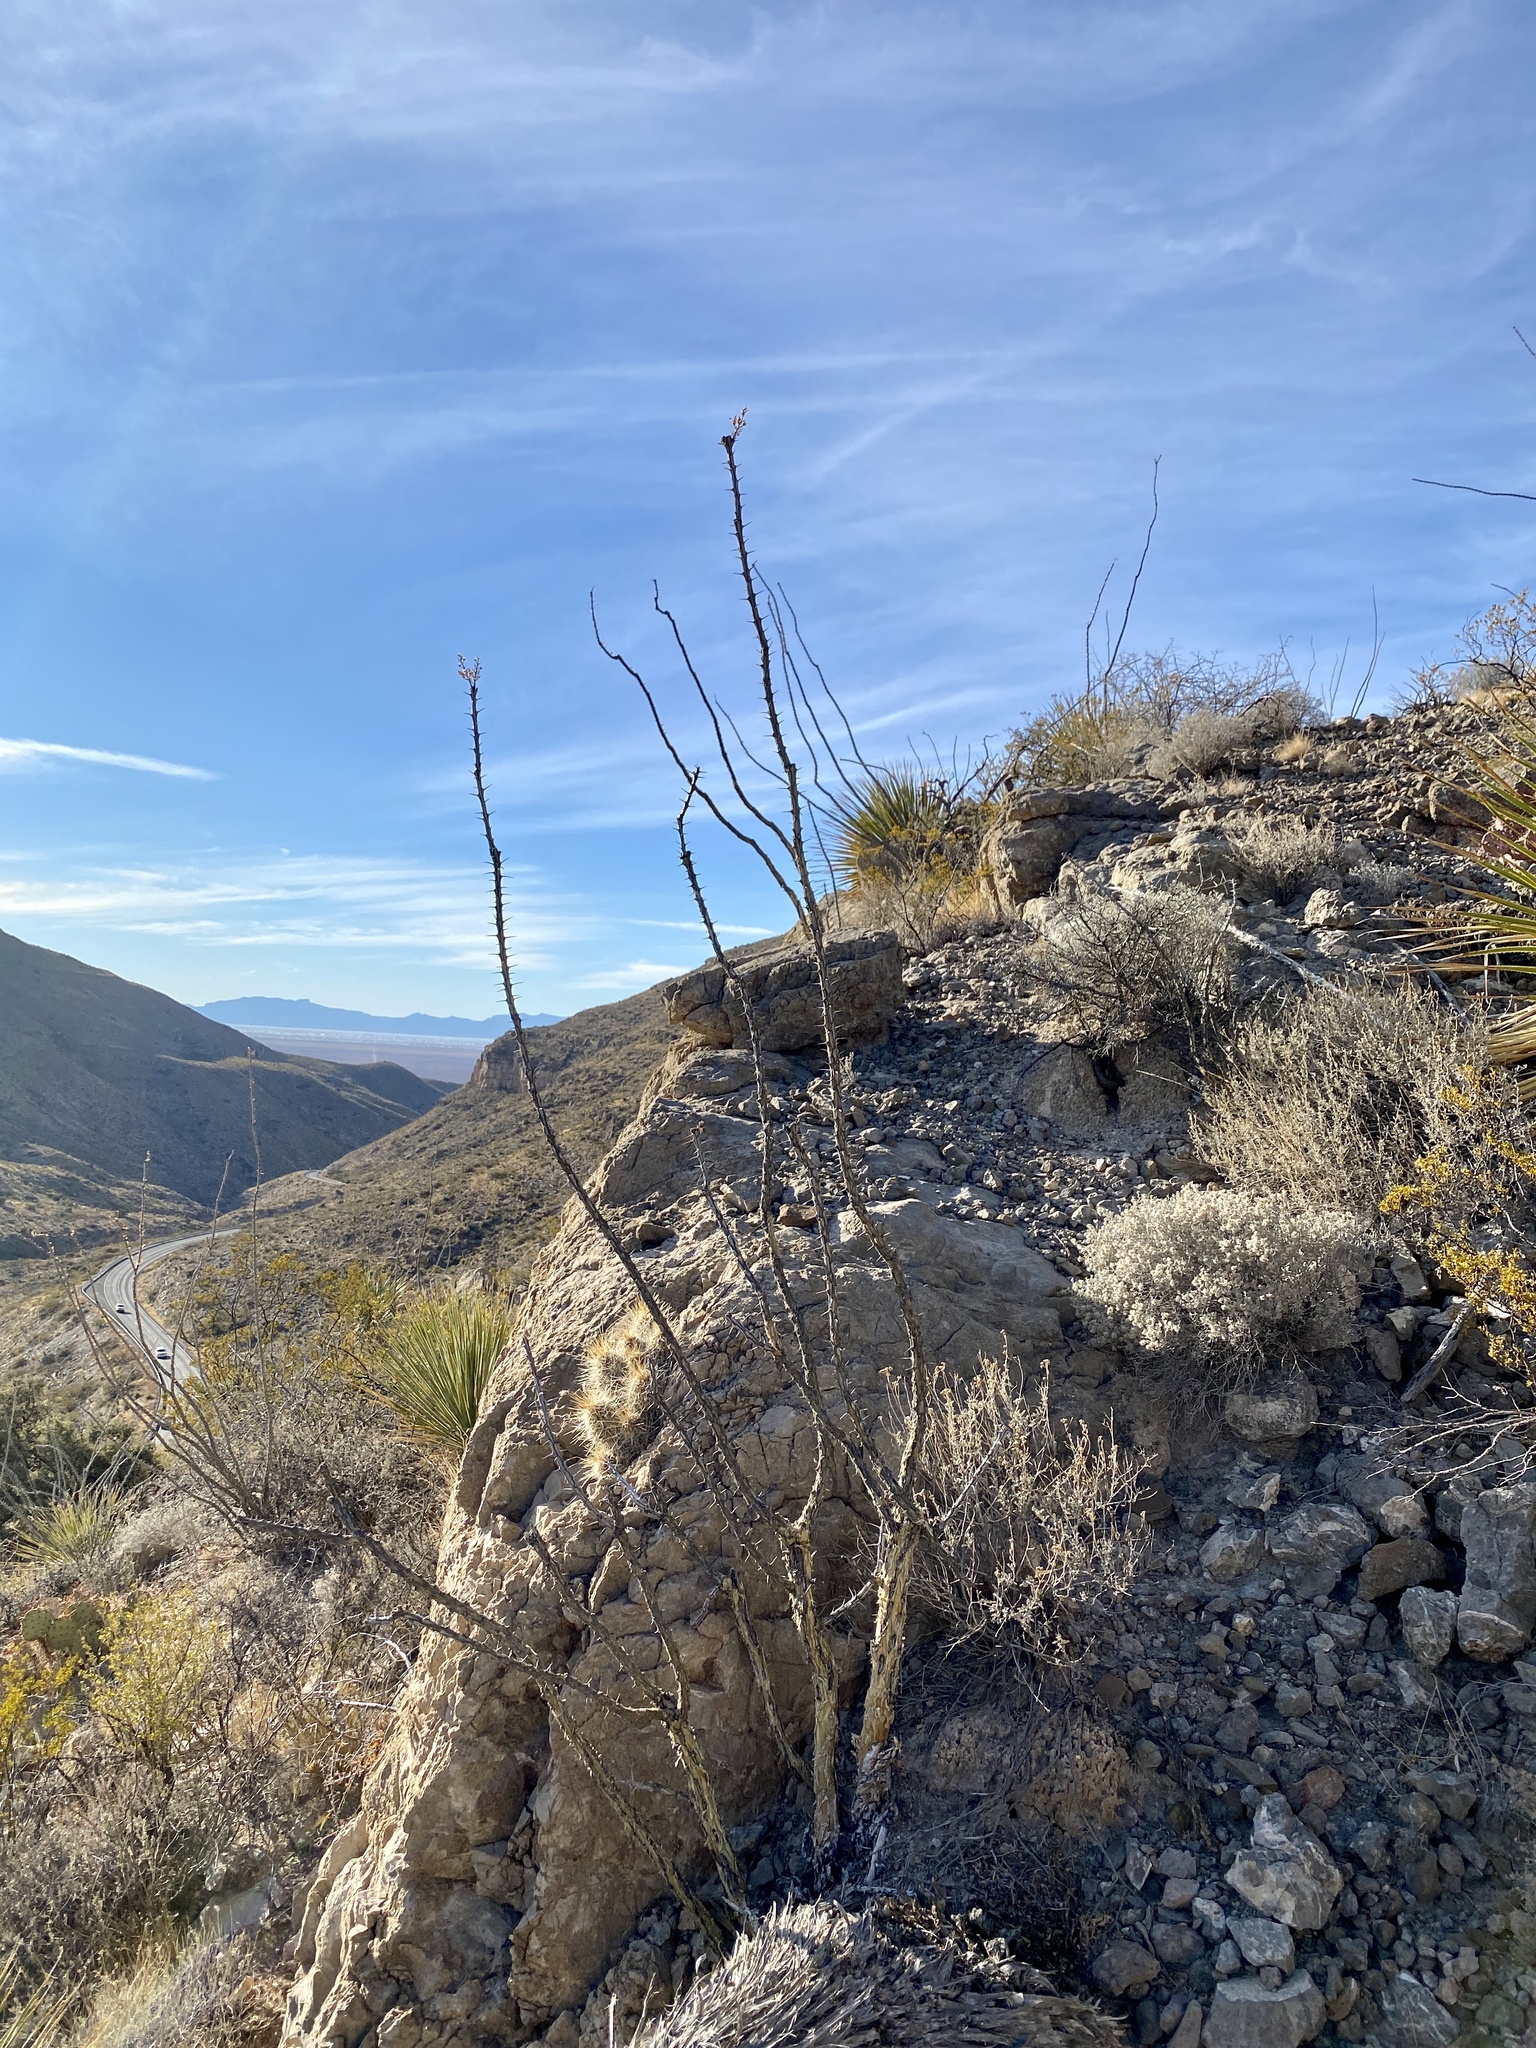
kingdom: Plantae
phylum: Tracheophyta
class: Magnoliopsida
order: Ericales
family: Fouquieriaceae
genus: Fouquieria
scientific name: Fouquieria splendens
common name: Vine-cactus
